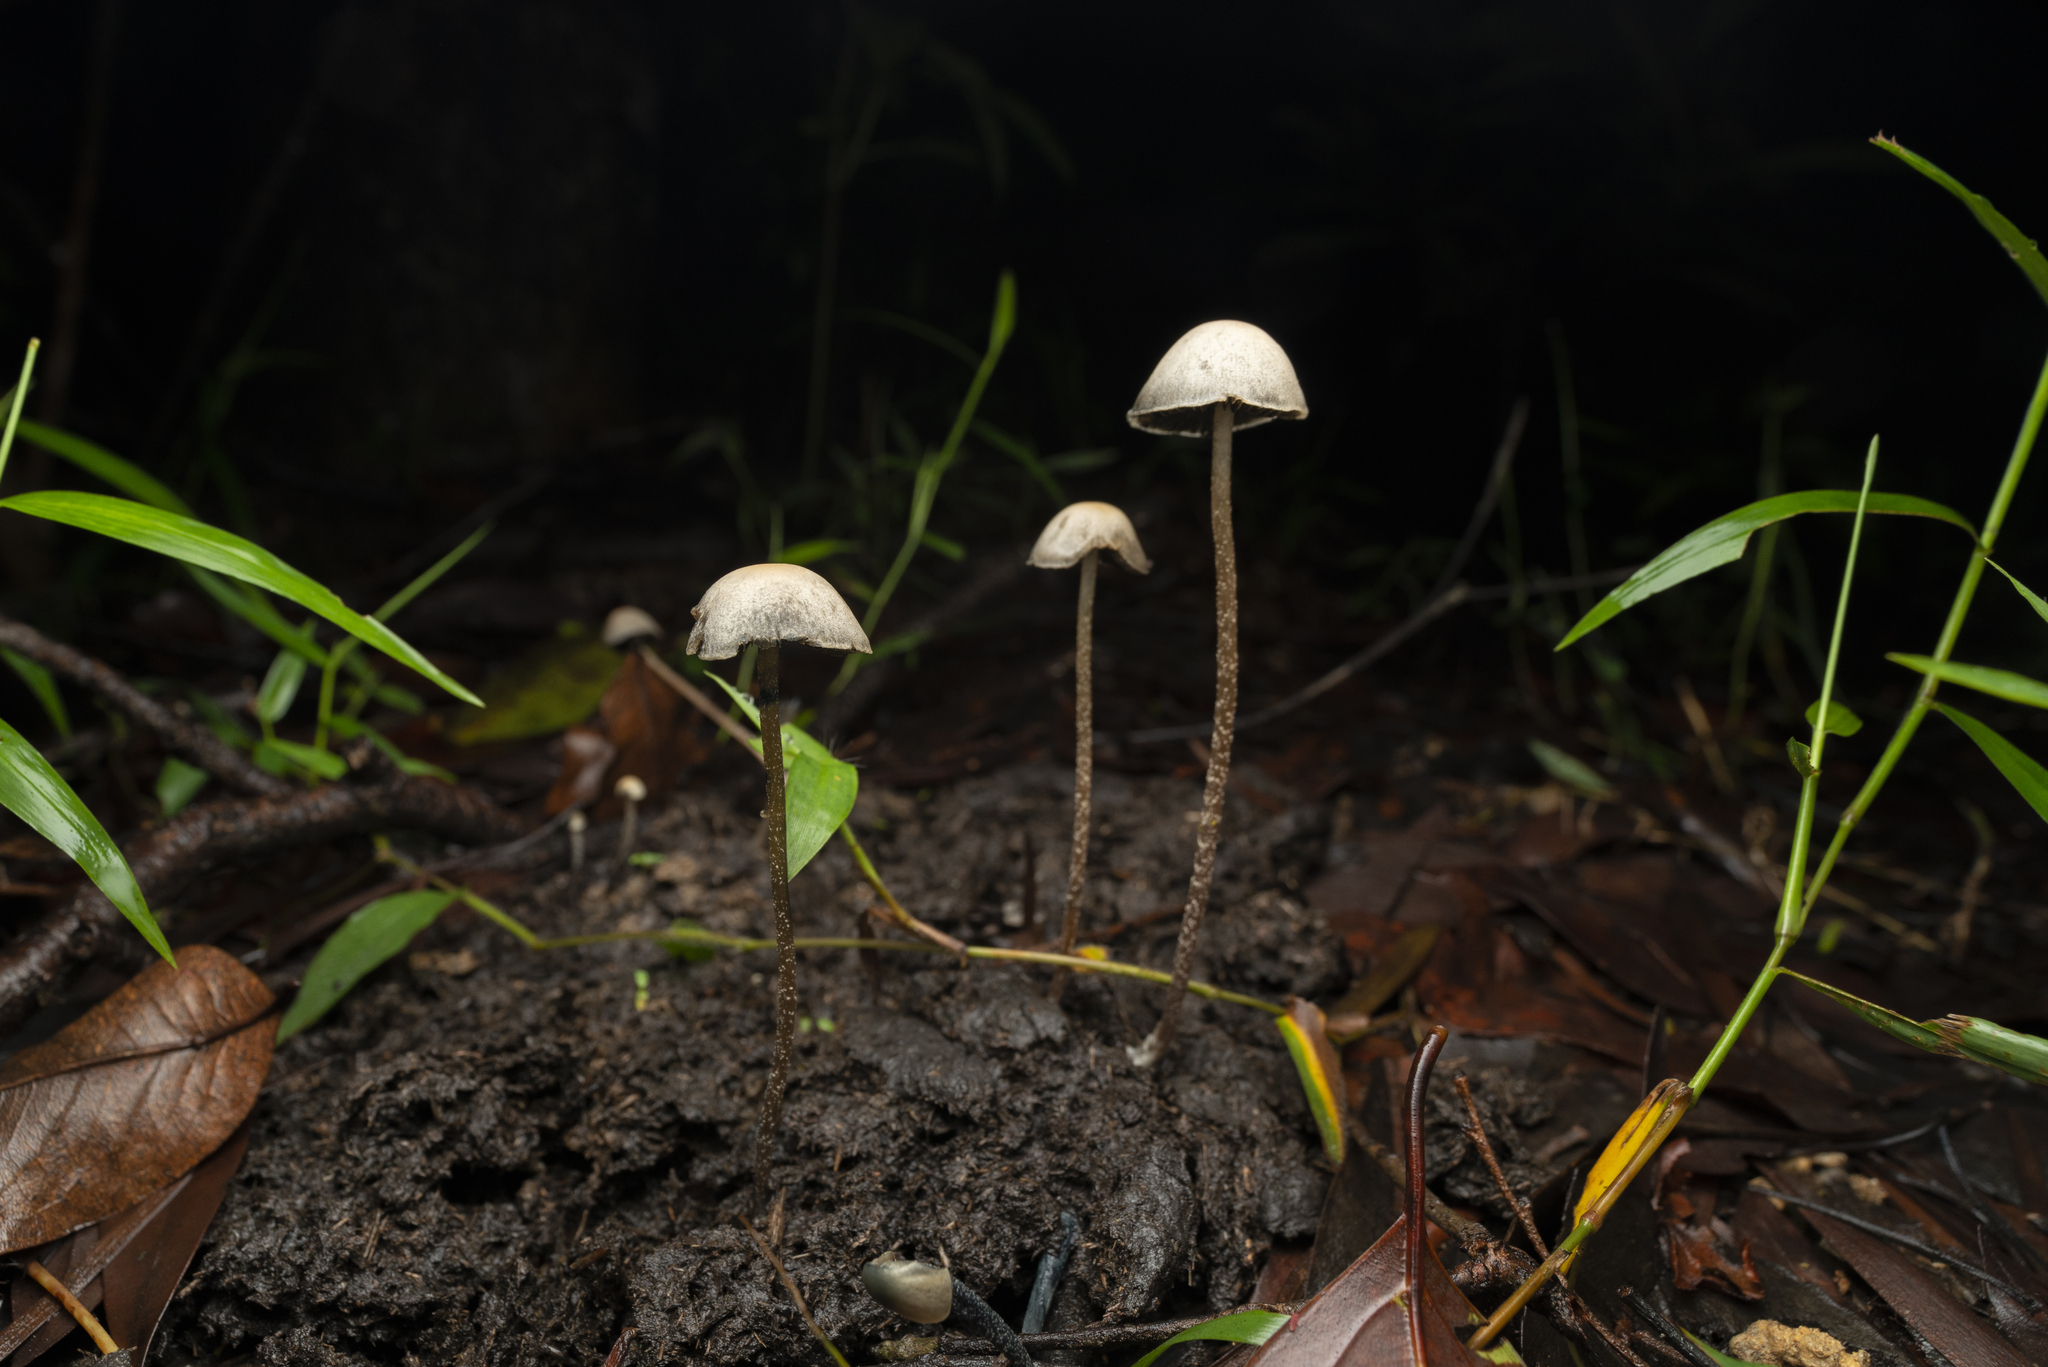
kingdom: Fungi
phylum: Basidiomycota
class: Agaricomycetes
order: Agaricales
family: Bolbitiaceae
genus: Panaeolus
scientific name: Panaeolus cyanescens
